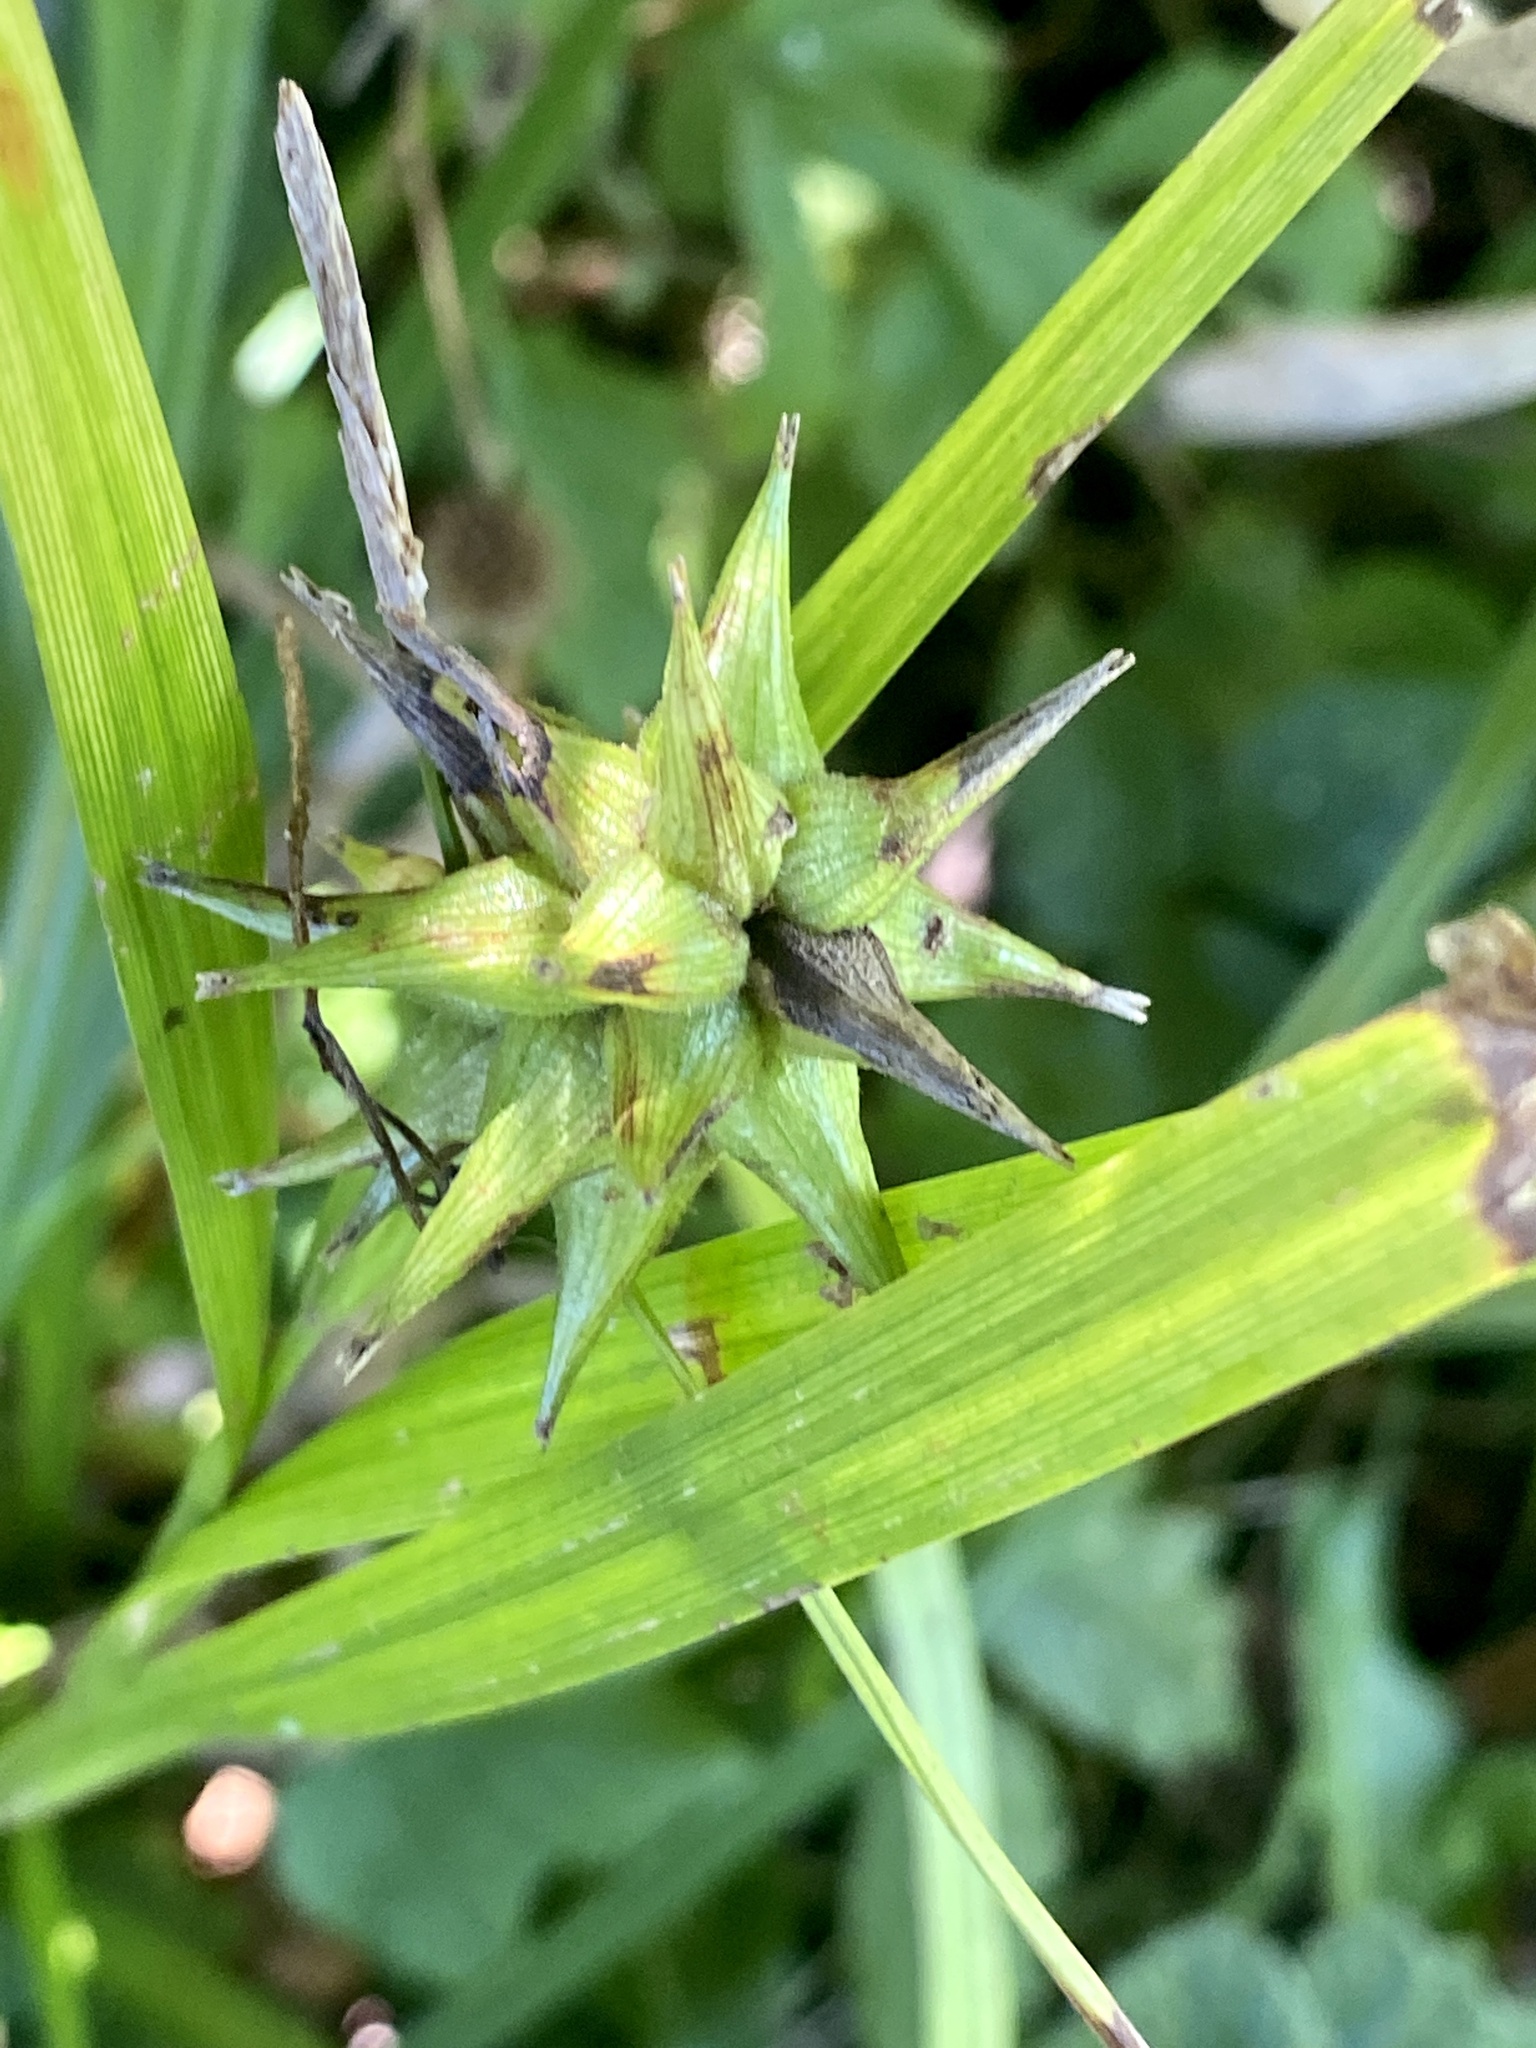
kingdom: Plantae
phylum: Tracheophyta
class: Liliopsida
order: Poales
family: Cyperaceae
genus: Carex
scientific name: Carex grayi
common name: Asa gray's sedge
